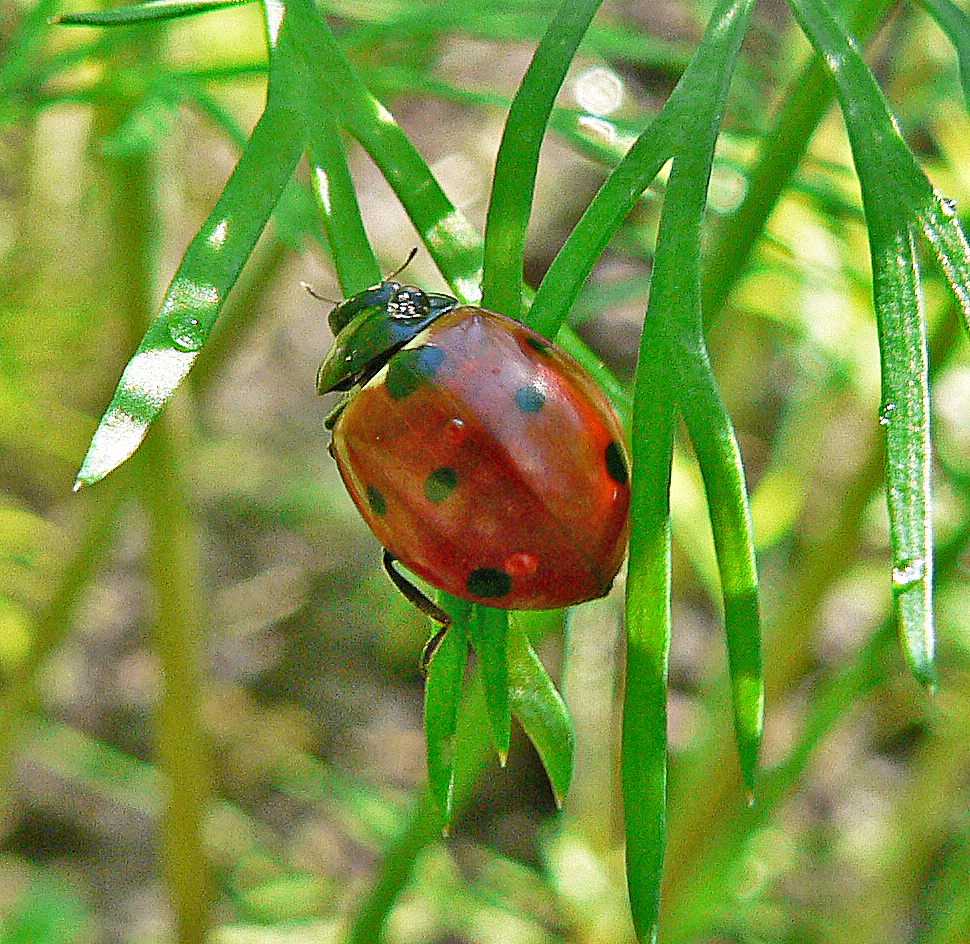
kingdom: Animalia
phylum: Arthropoda
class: Insecta
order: Coleoptera
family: Coccinellidae
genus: Coccinella
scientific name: Coccinella septempunctata
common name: Sevenspotted lady beetle
